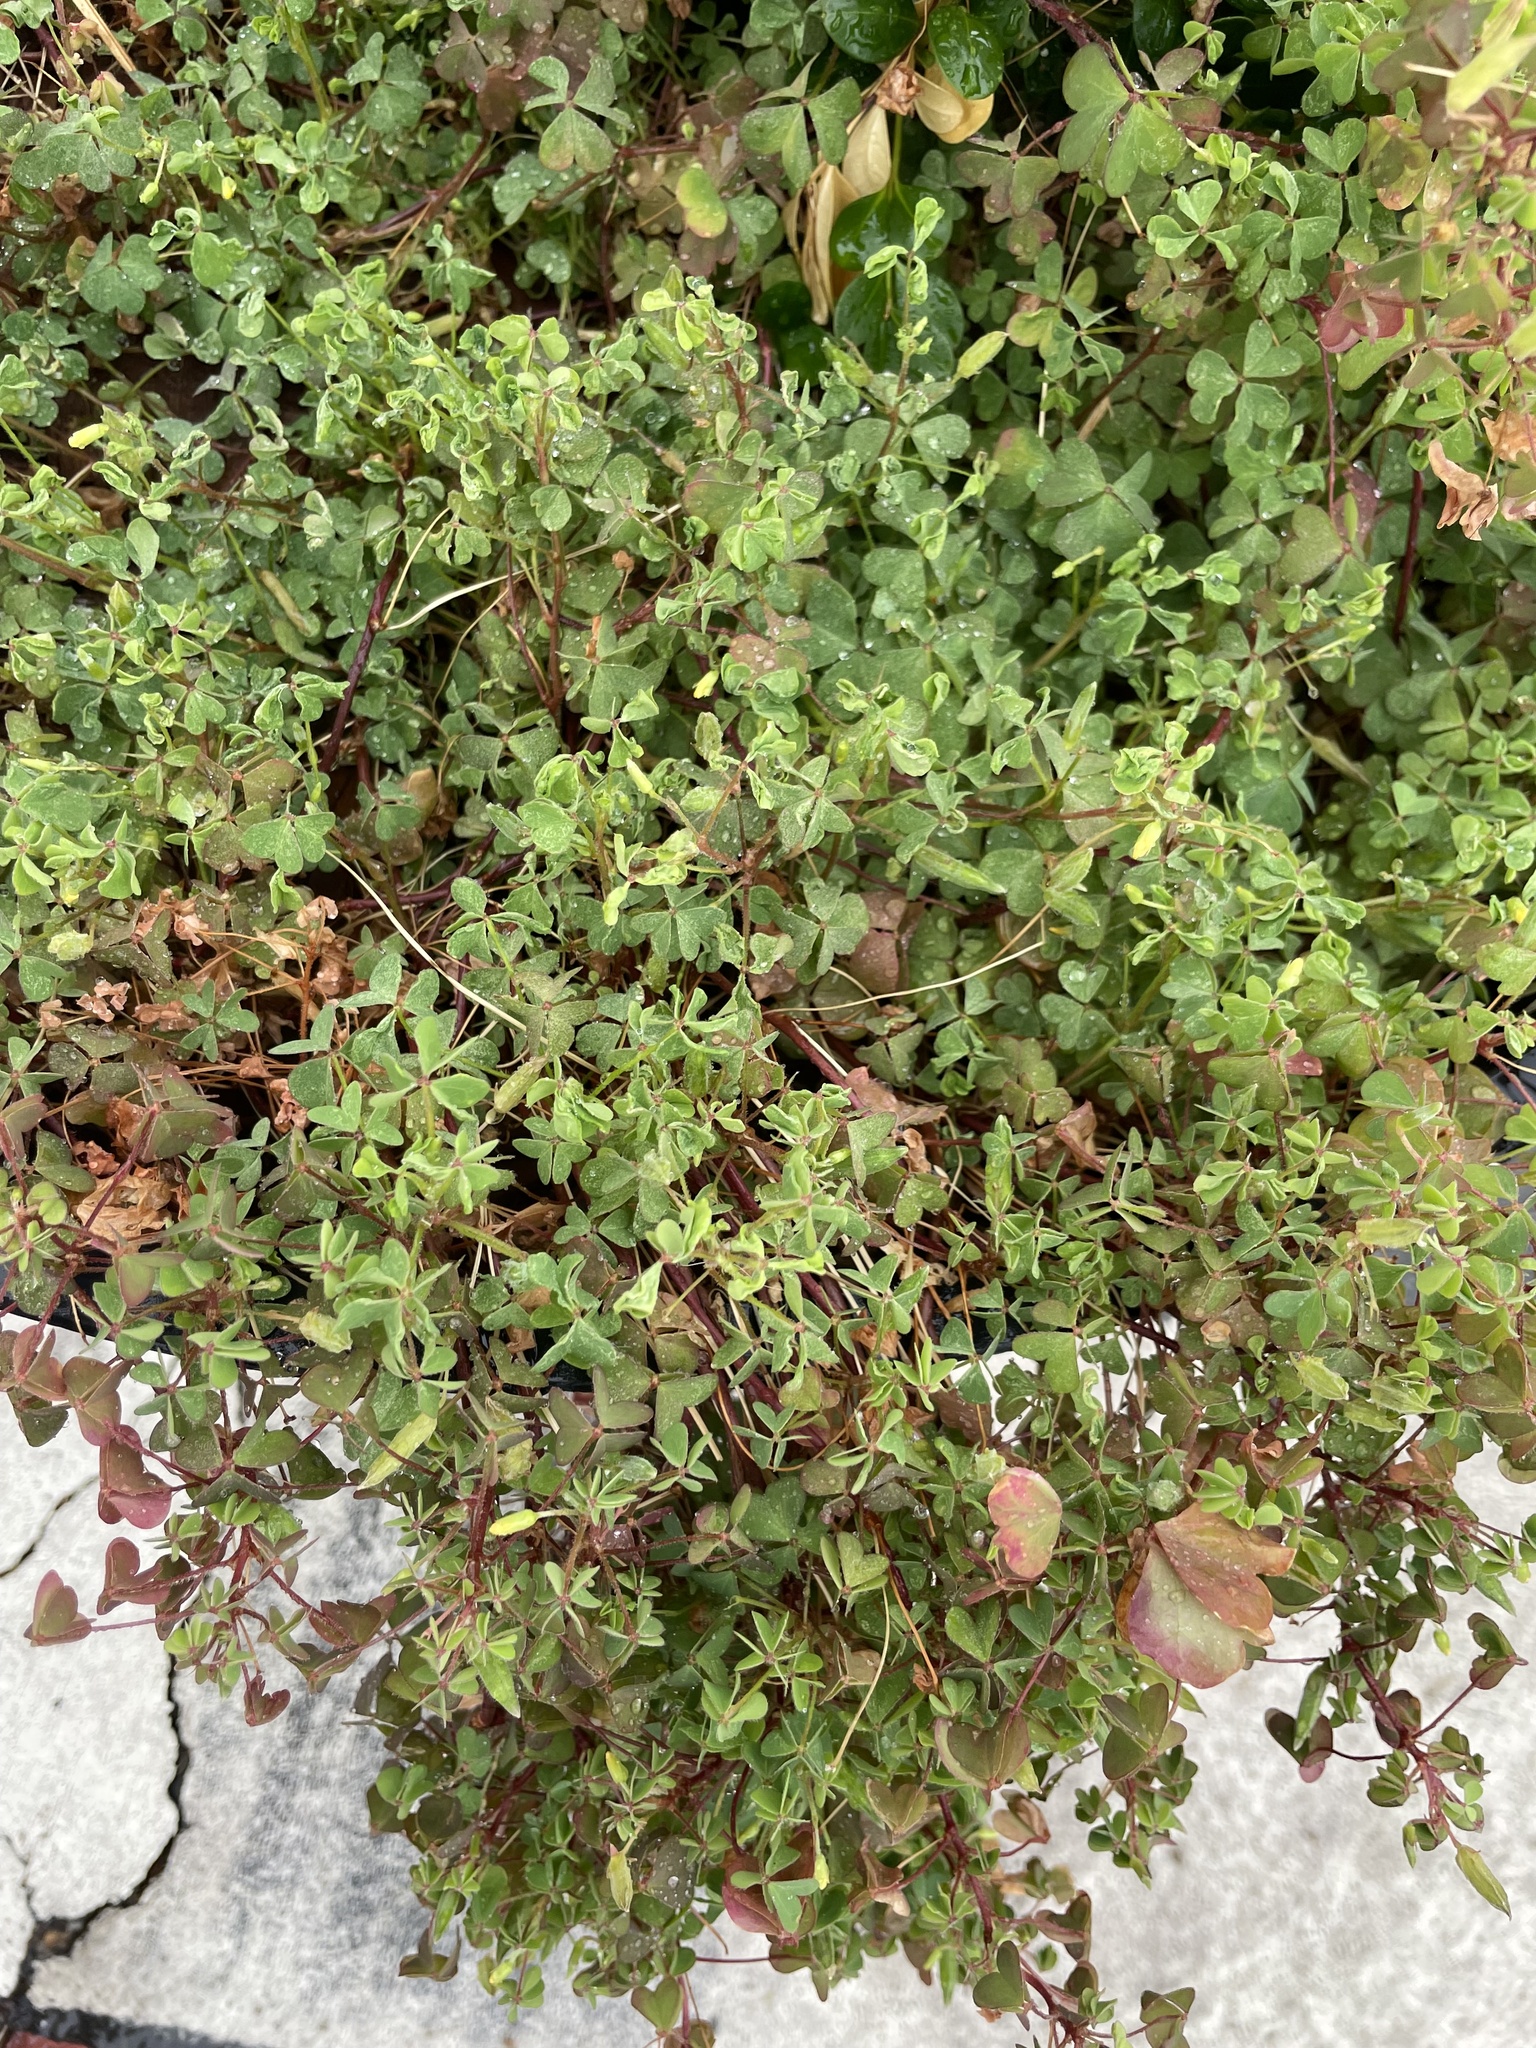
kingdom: Plantae
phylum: Tracheophyta
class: Magnoliopsida
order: Oxalidales
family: Oxalidaceae
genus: Oxalis
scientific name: Oxalis corniculata
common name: Procumbent yellow-sorrel
